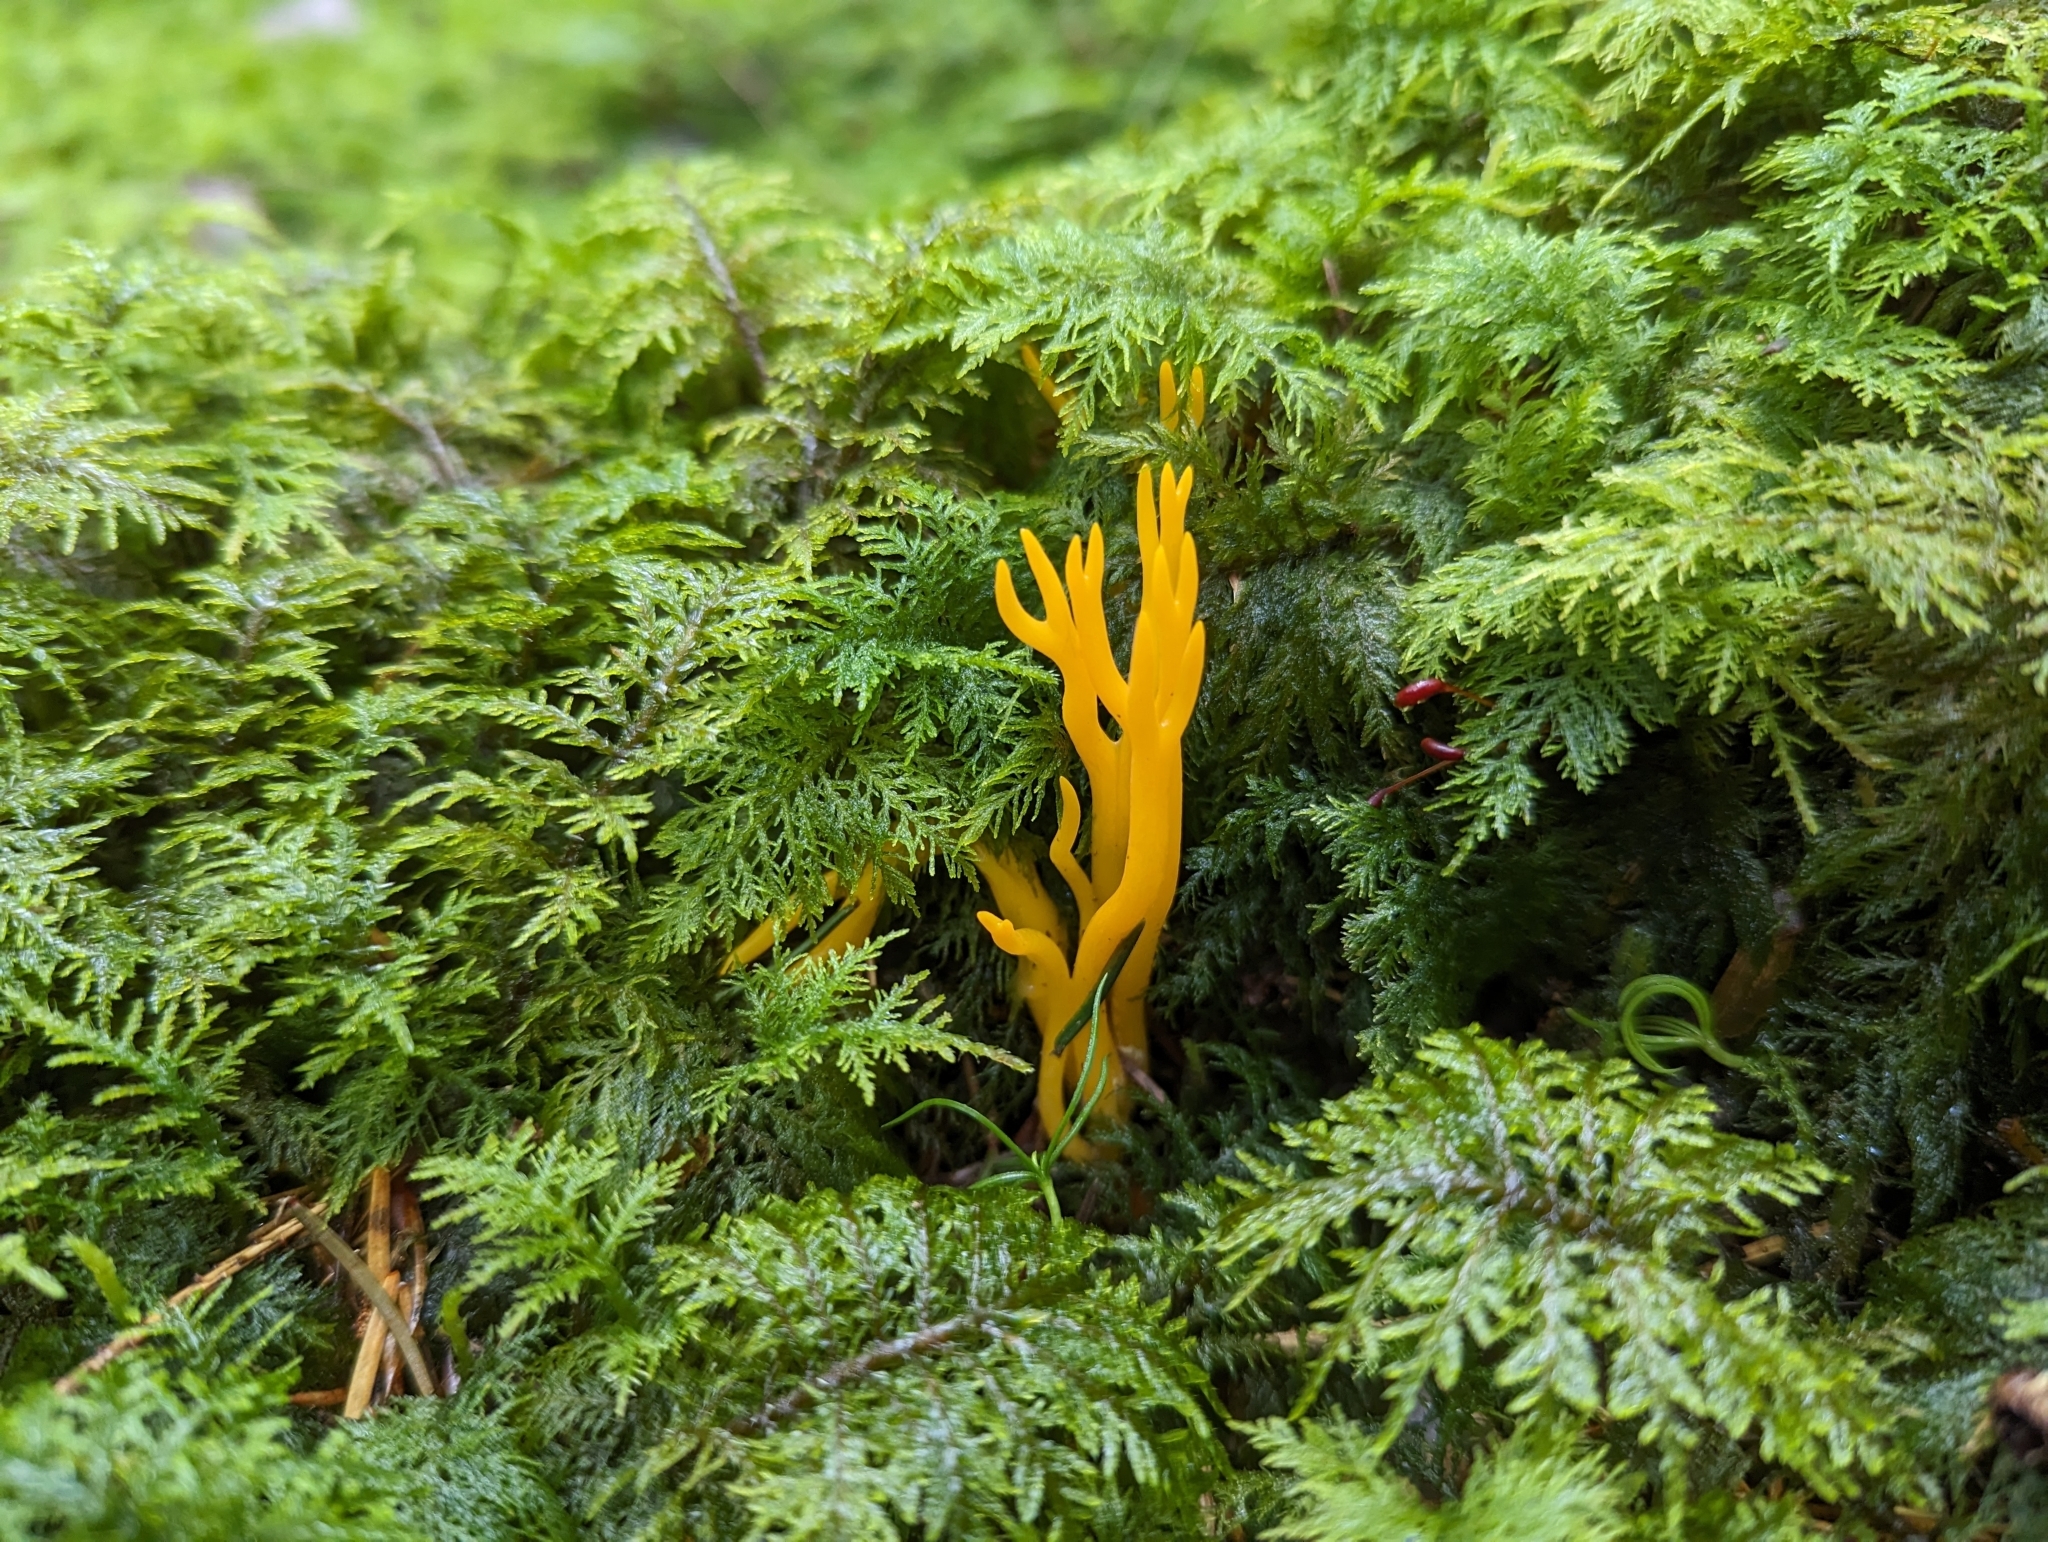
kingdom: Fungi
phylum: Basidiomycota
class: Dacrymycetes
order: Dacrymycetales
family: Dacrymycetaceae
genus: Calocera
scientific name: Calocera viscosa
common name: Yellow stagshorn
